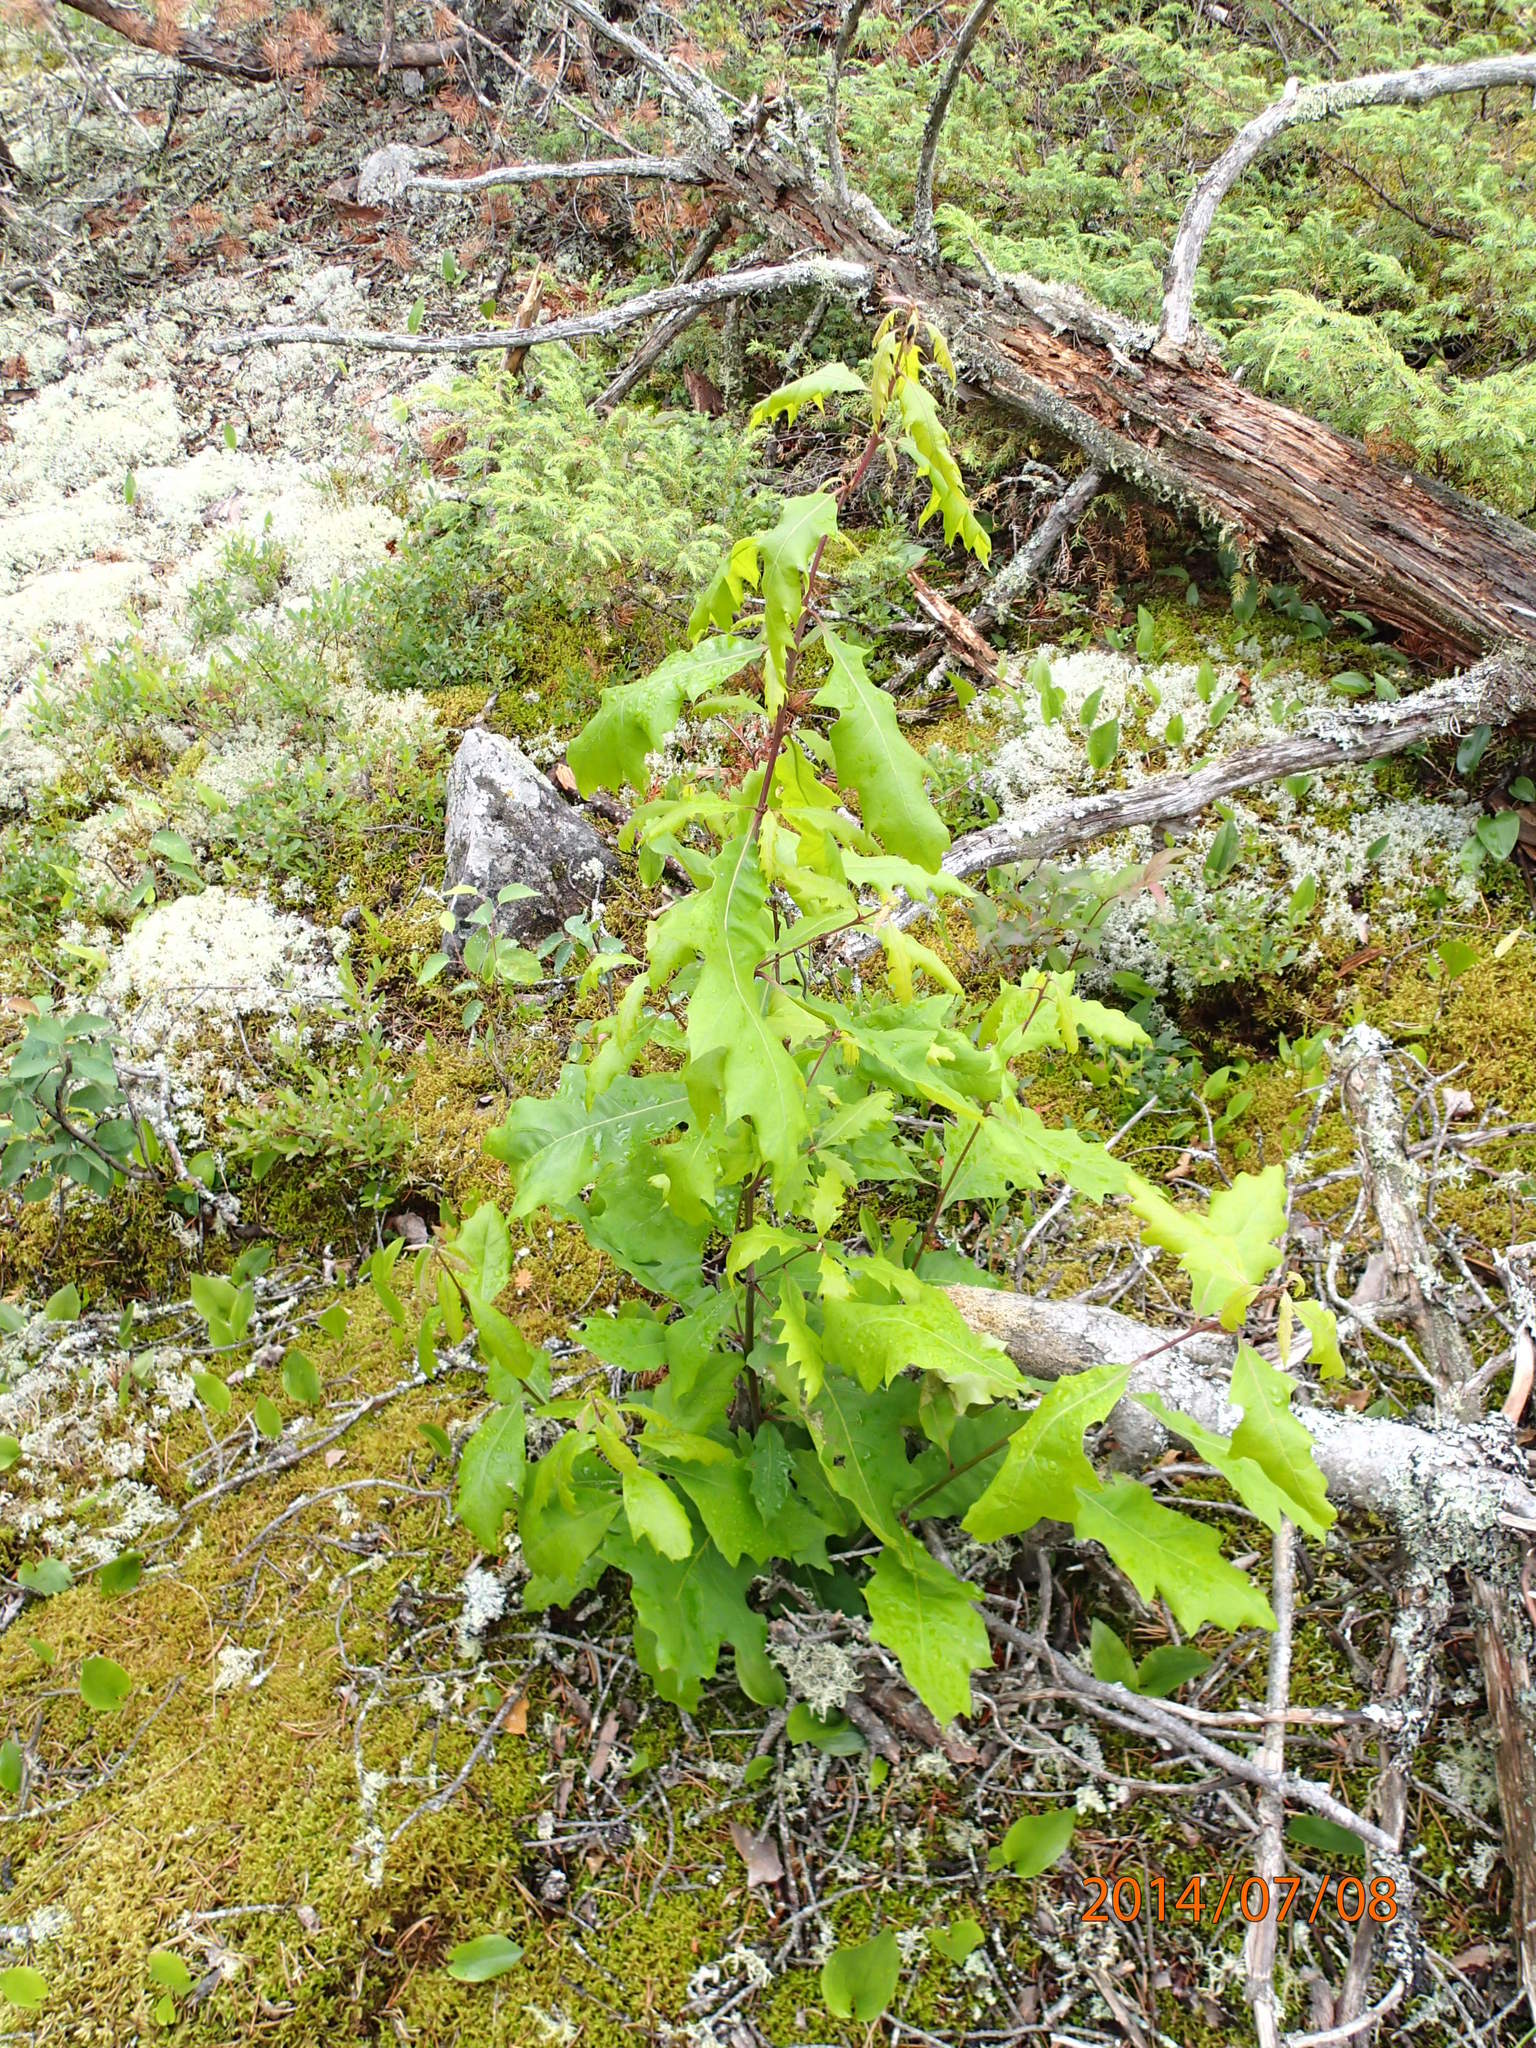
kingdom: Plantae
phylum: Tracheophyta
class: Magnoliopsida
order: Fagales
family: Fagaceae
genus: Quercus
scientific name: Quercus ellipsoidalis
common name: Hill's oak
